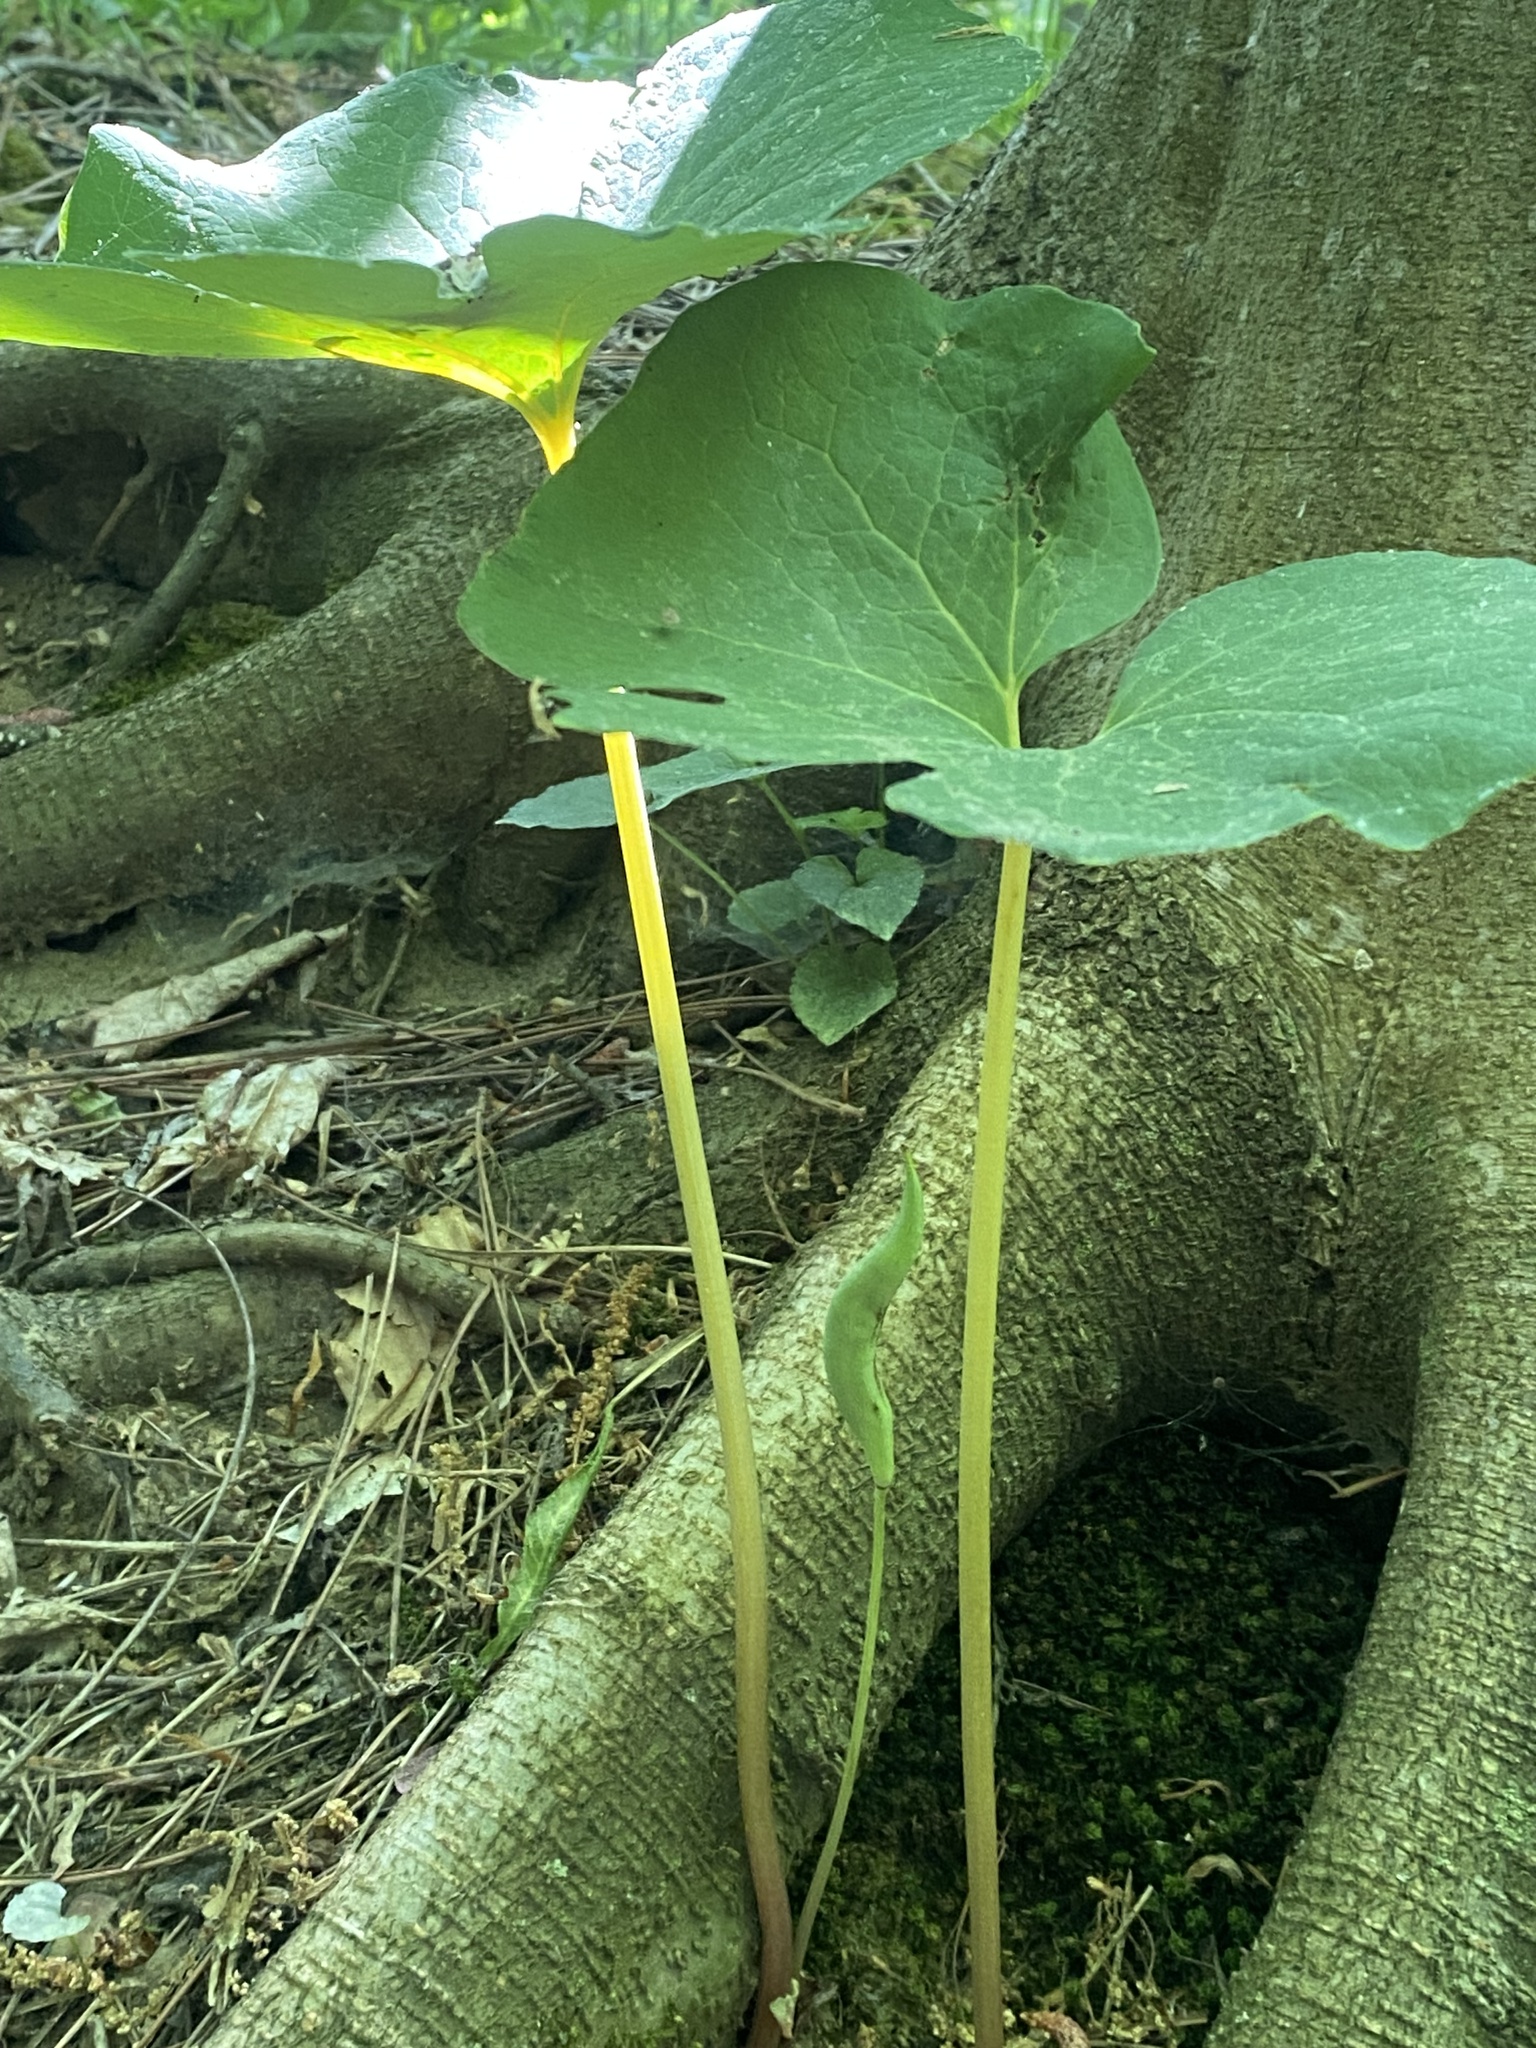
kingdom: Plantae
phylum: Tracheophyta
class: Magnoliopsida
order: Ranunculales
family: Papaveraceae
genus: Sanguinaria
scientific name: Sanguinaria canadensis
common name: Bloodroot
